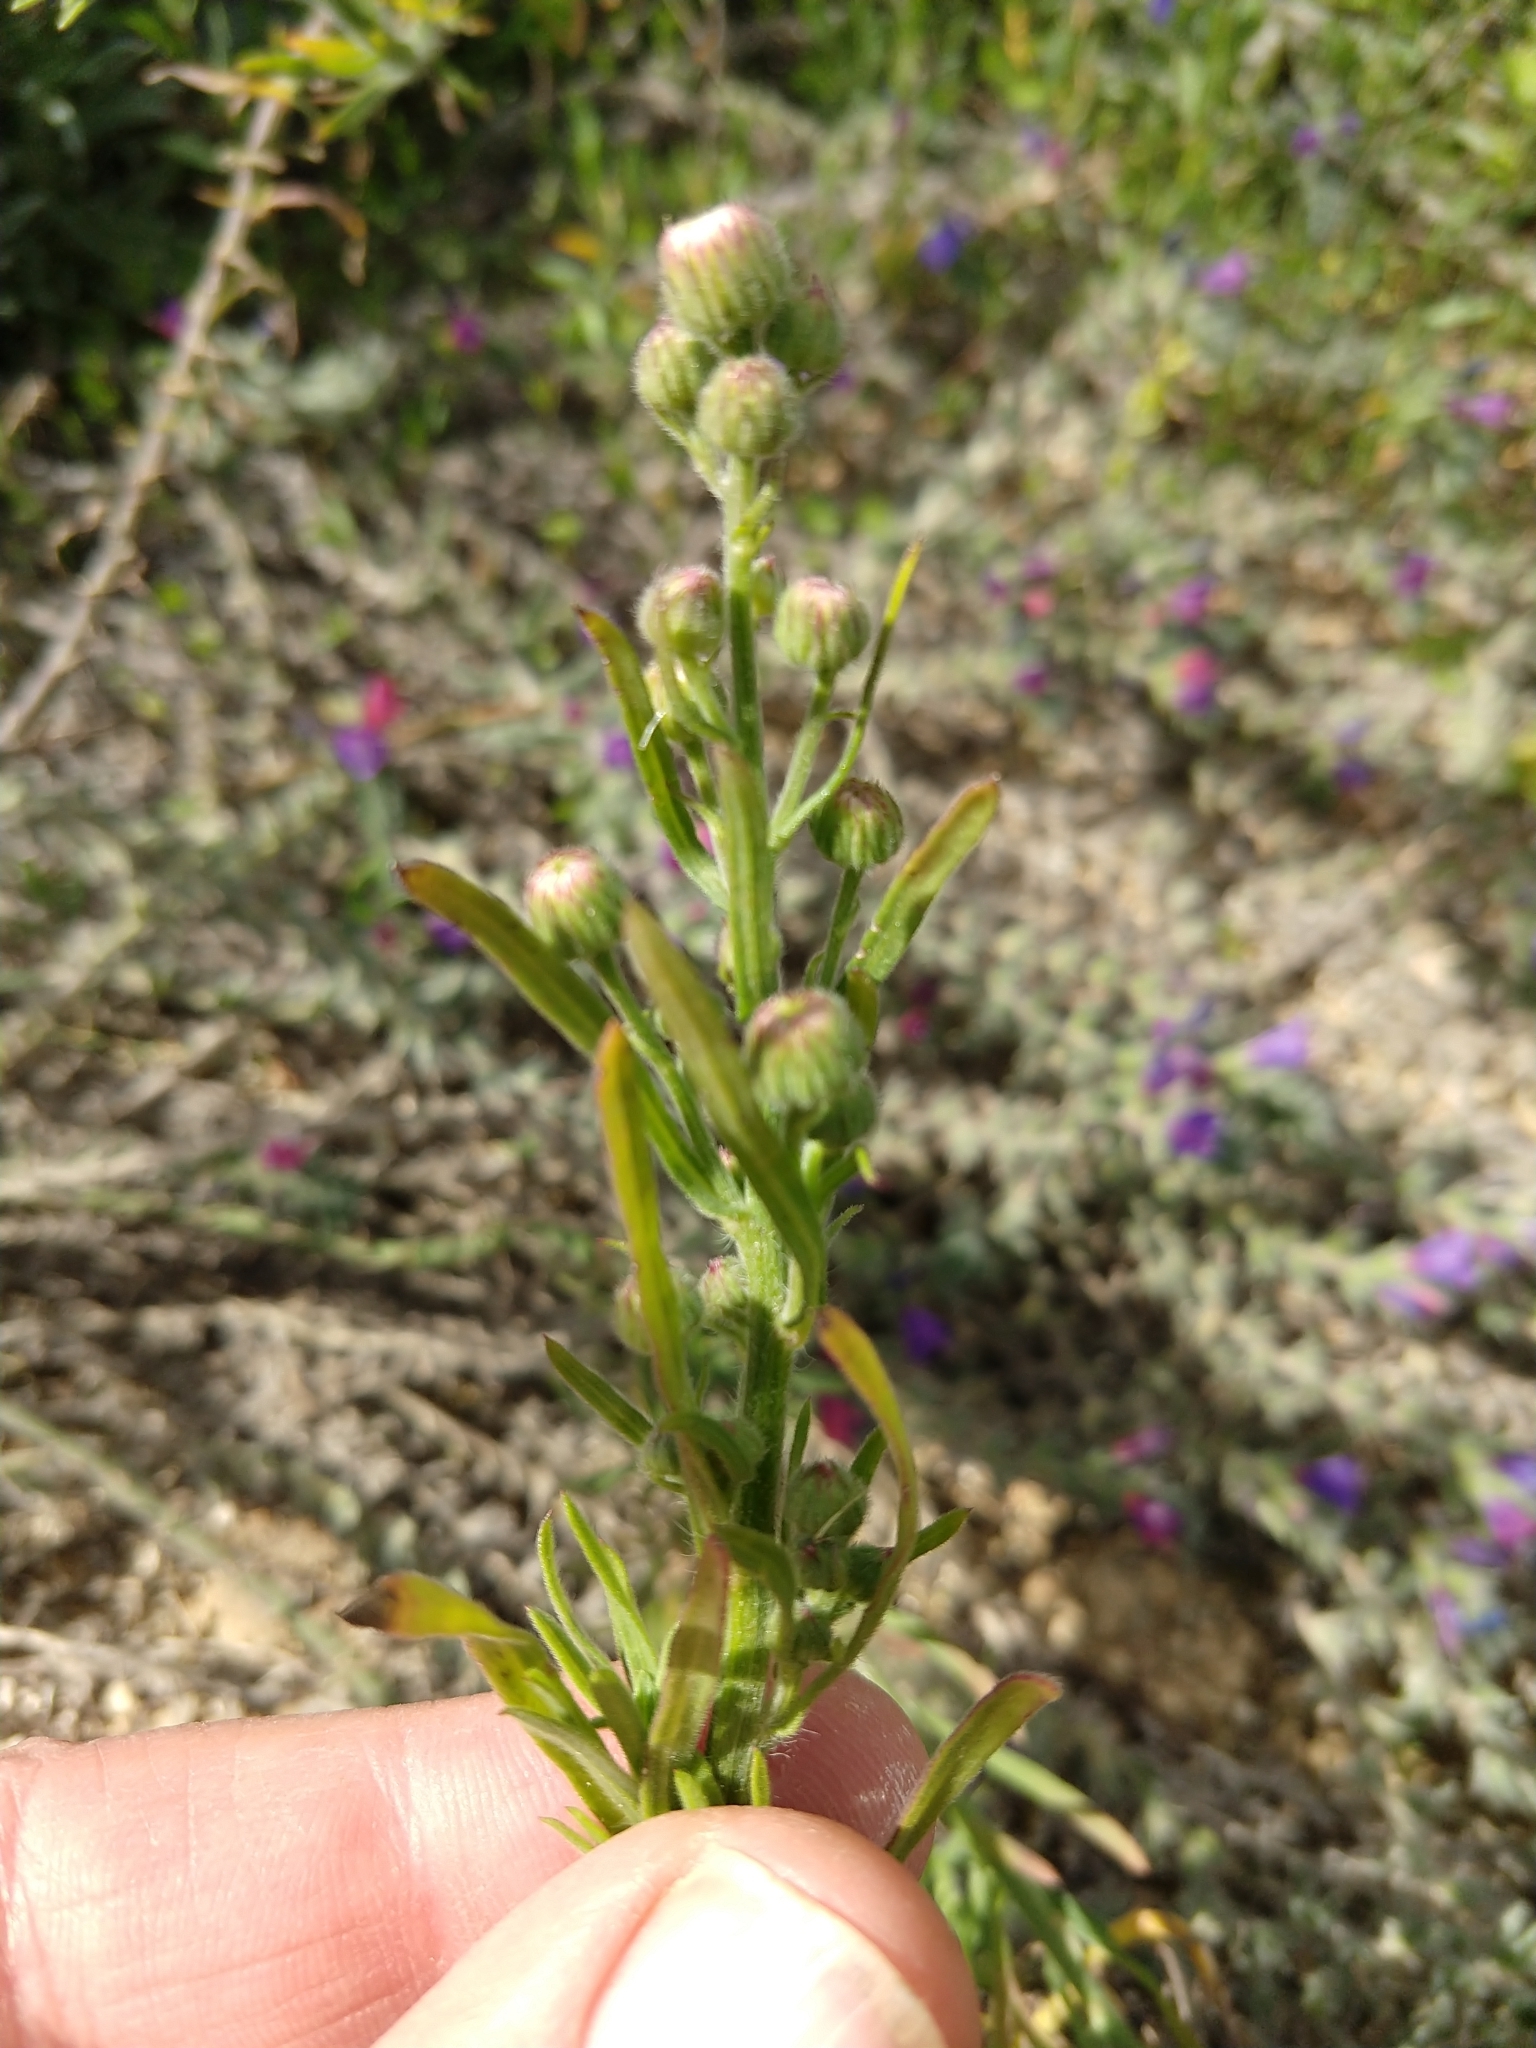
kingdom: Plantae
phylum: Tracheophyta
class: Magnoliopsida
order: Asterales
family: Asteraceae
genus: Erigeron
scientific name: Erigeron bonariensis
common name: Argentine fleabane
